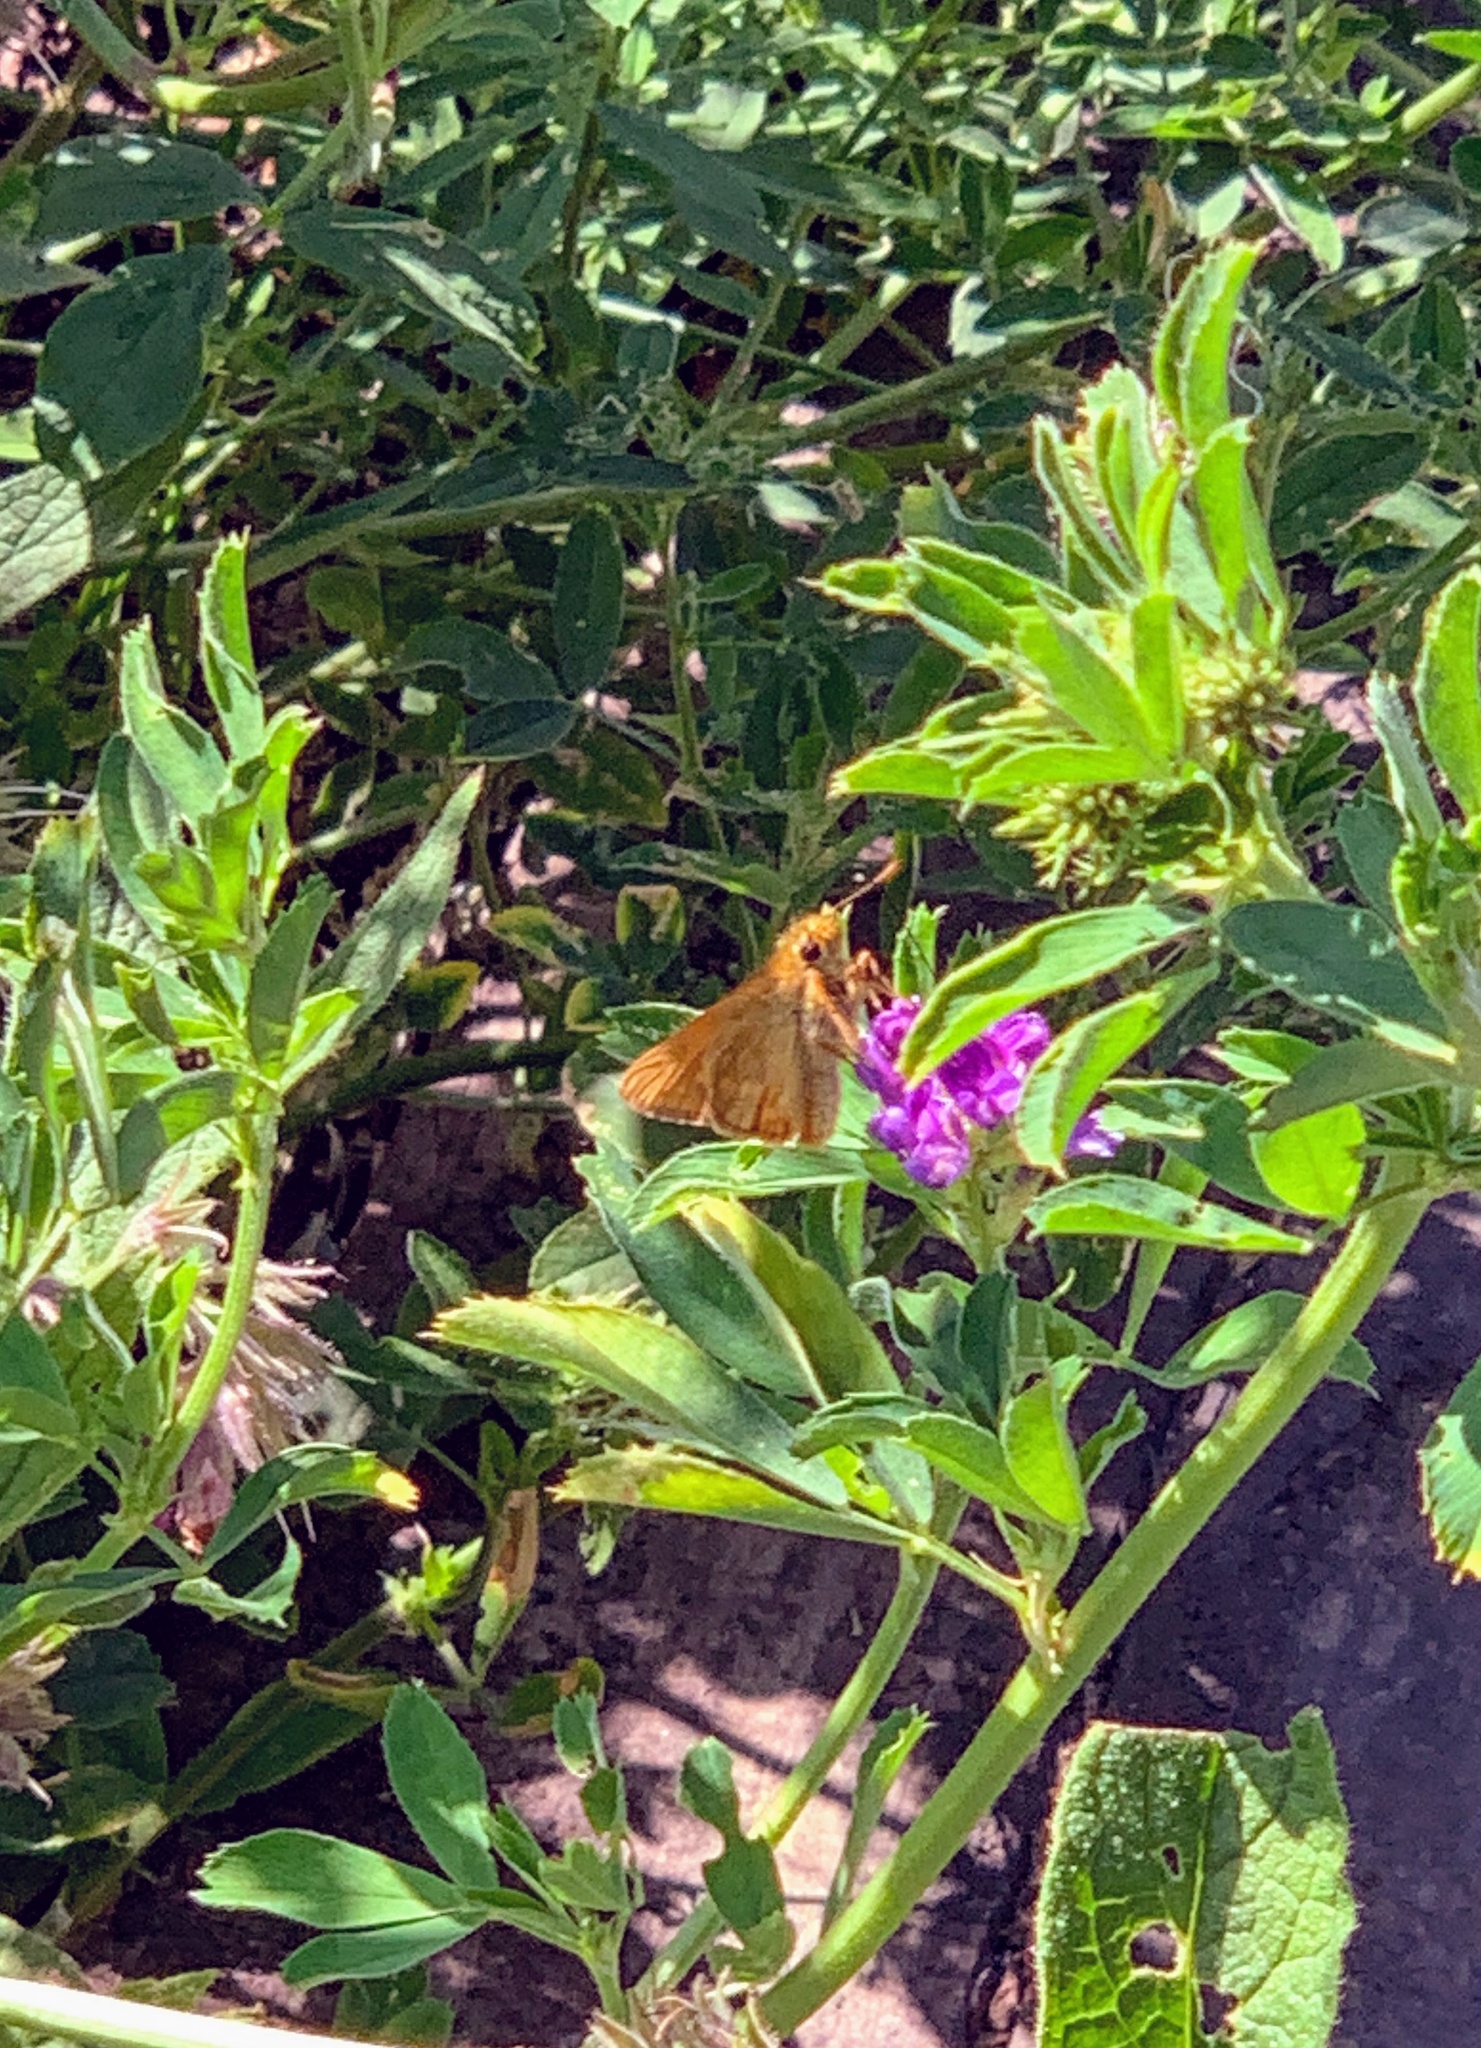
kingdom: Animalia
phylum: Arthropoda
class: Insecta
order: Lepidoptera
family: Hesperiidae
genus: Ochlodes
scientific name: Ochlodes venata
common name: Large skipper
